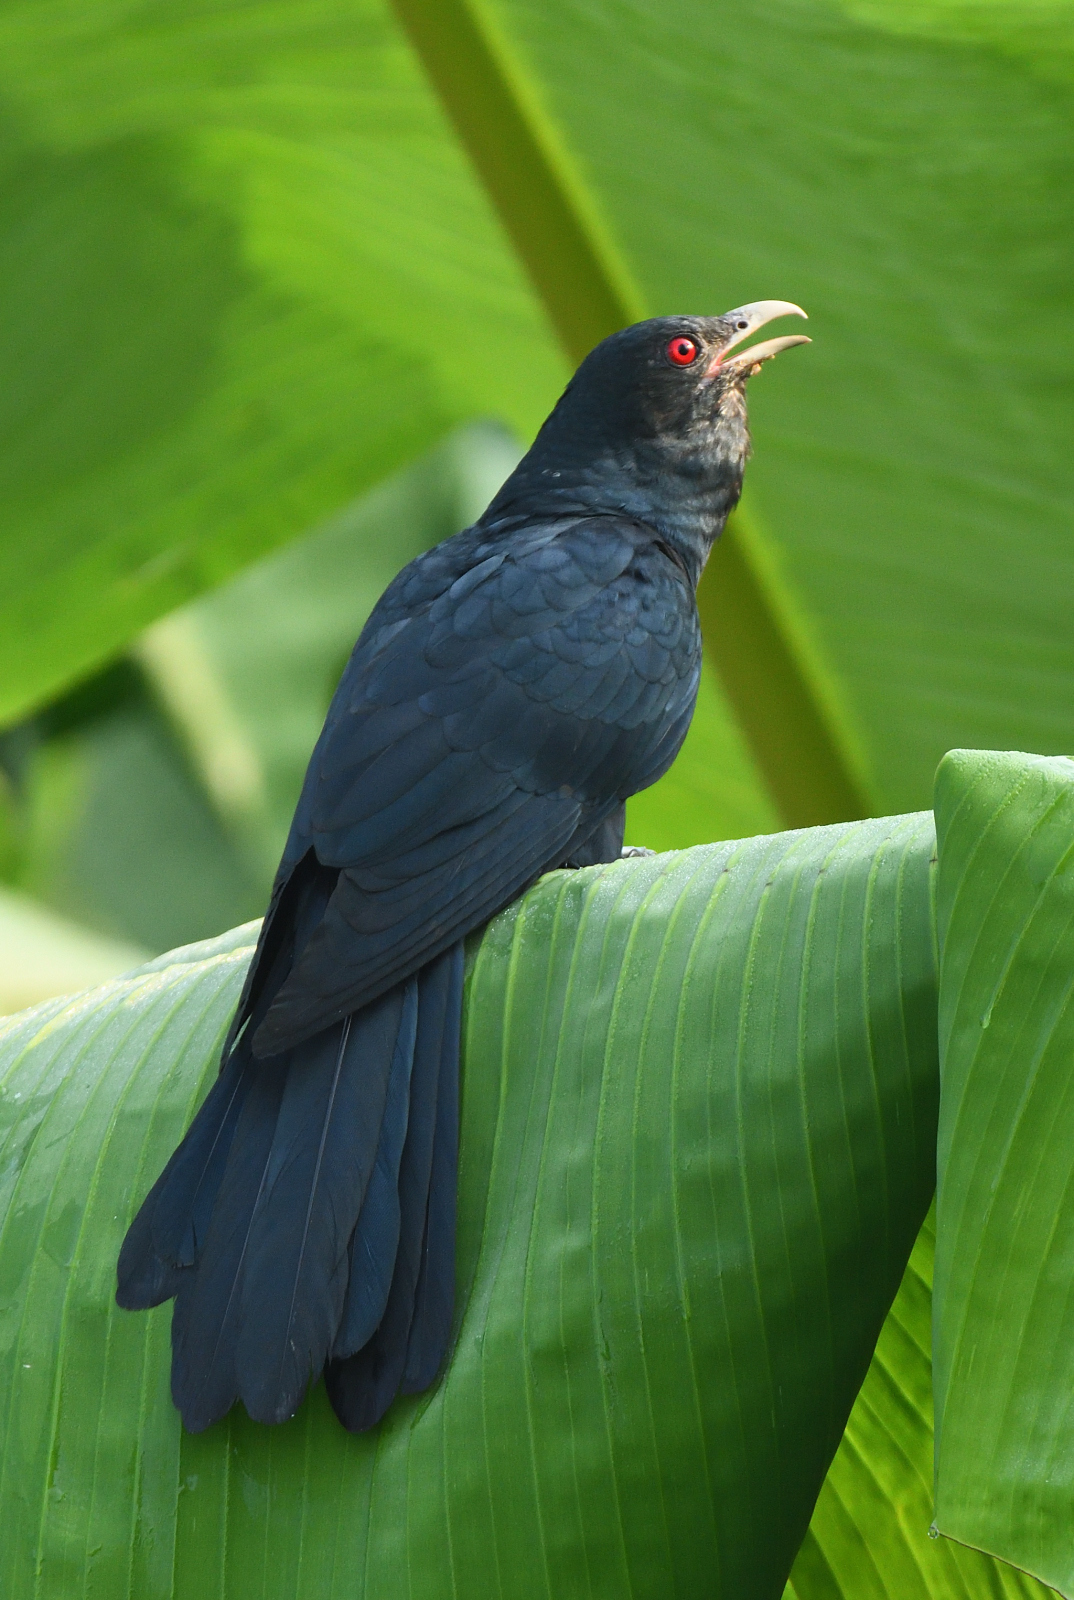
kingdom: Animalia
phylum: Chordata
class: Aves
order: Cuculiformes
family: Cuculidae
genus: Eudynamys
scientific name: Eudynamys scolopaceus
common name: Asian koel
